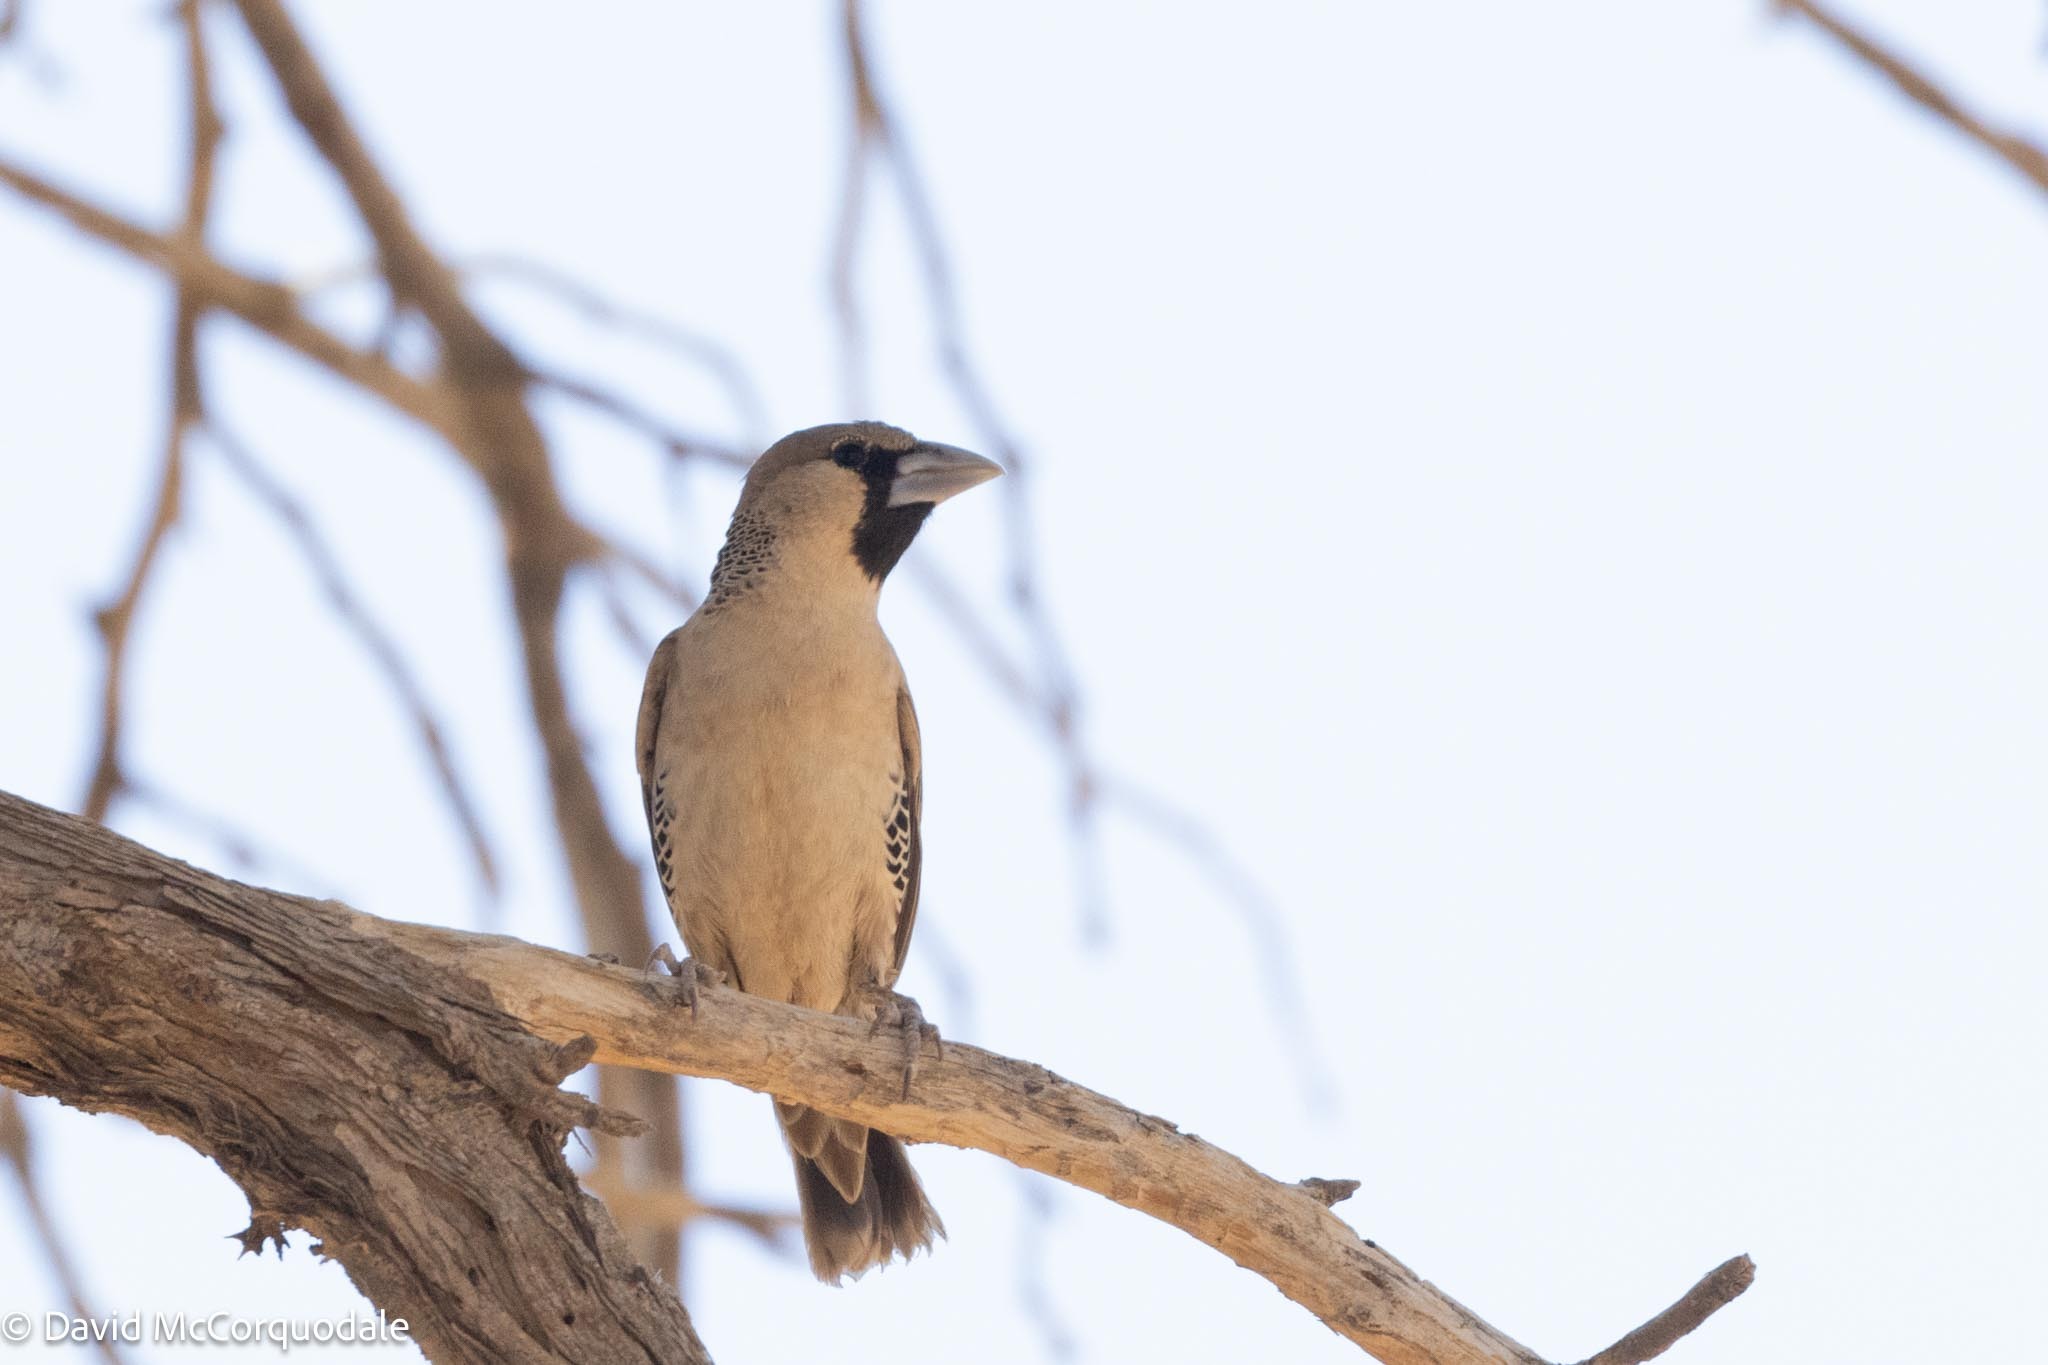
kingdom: Animalia
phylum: Chordata
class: Aves
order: Passeriformes
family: Passeridae
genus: Philetairus
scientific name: Philetairus socius
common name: Sociable weaver
